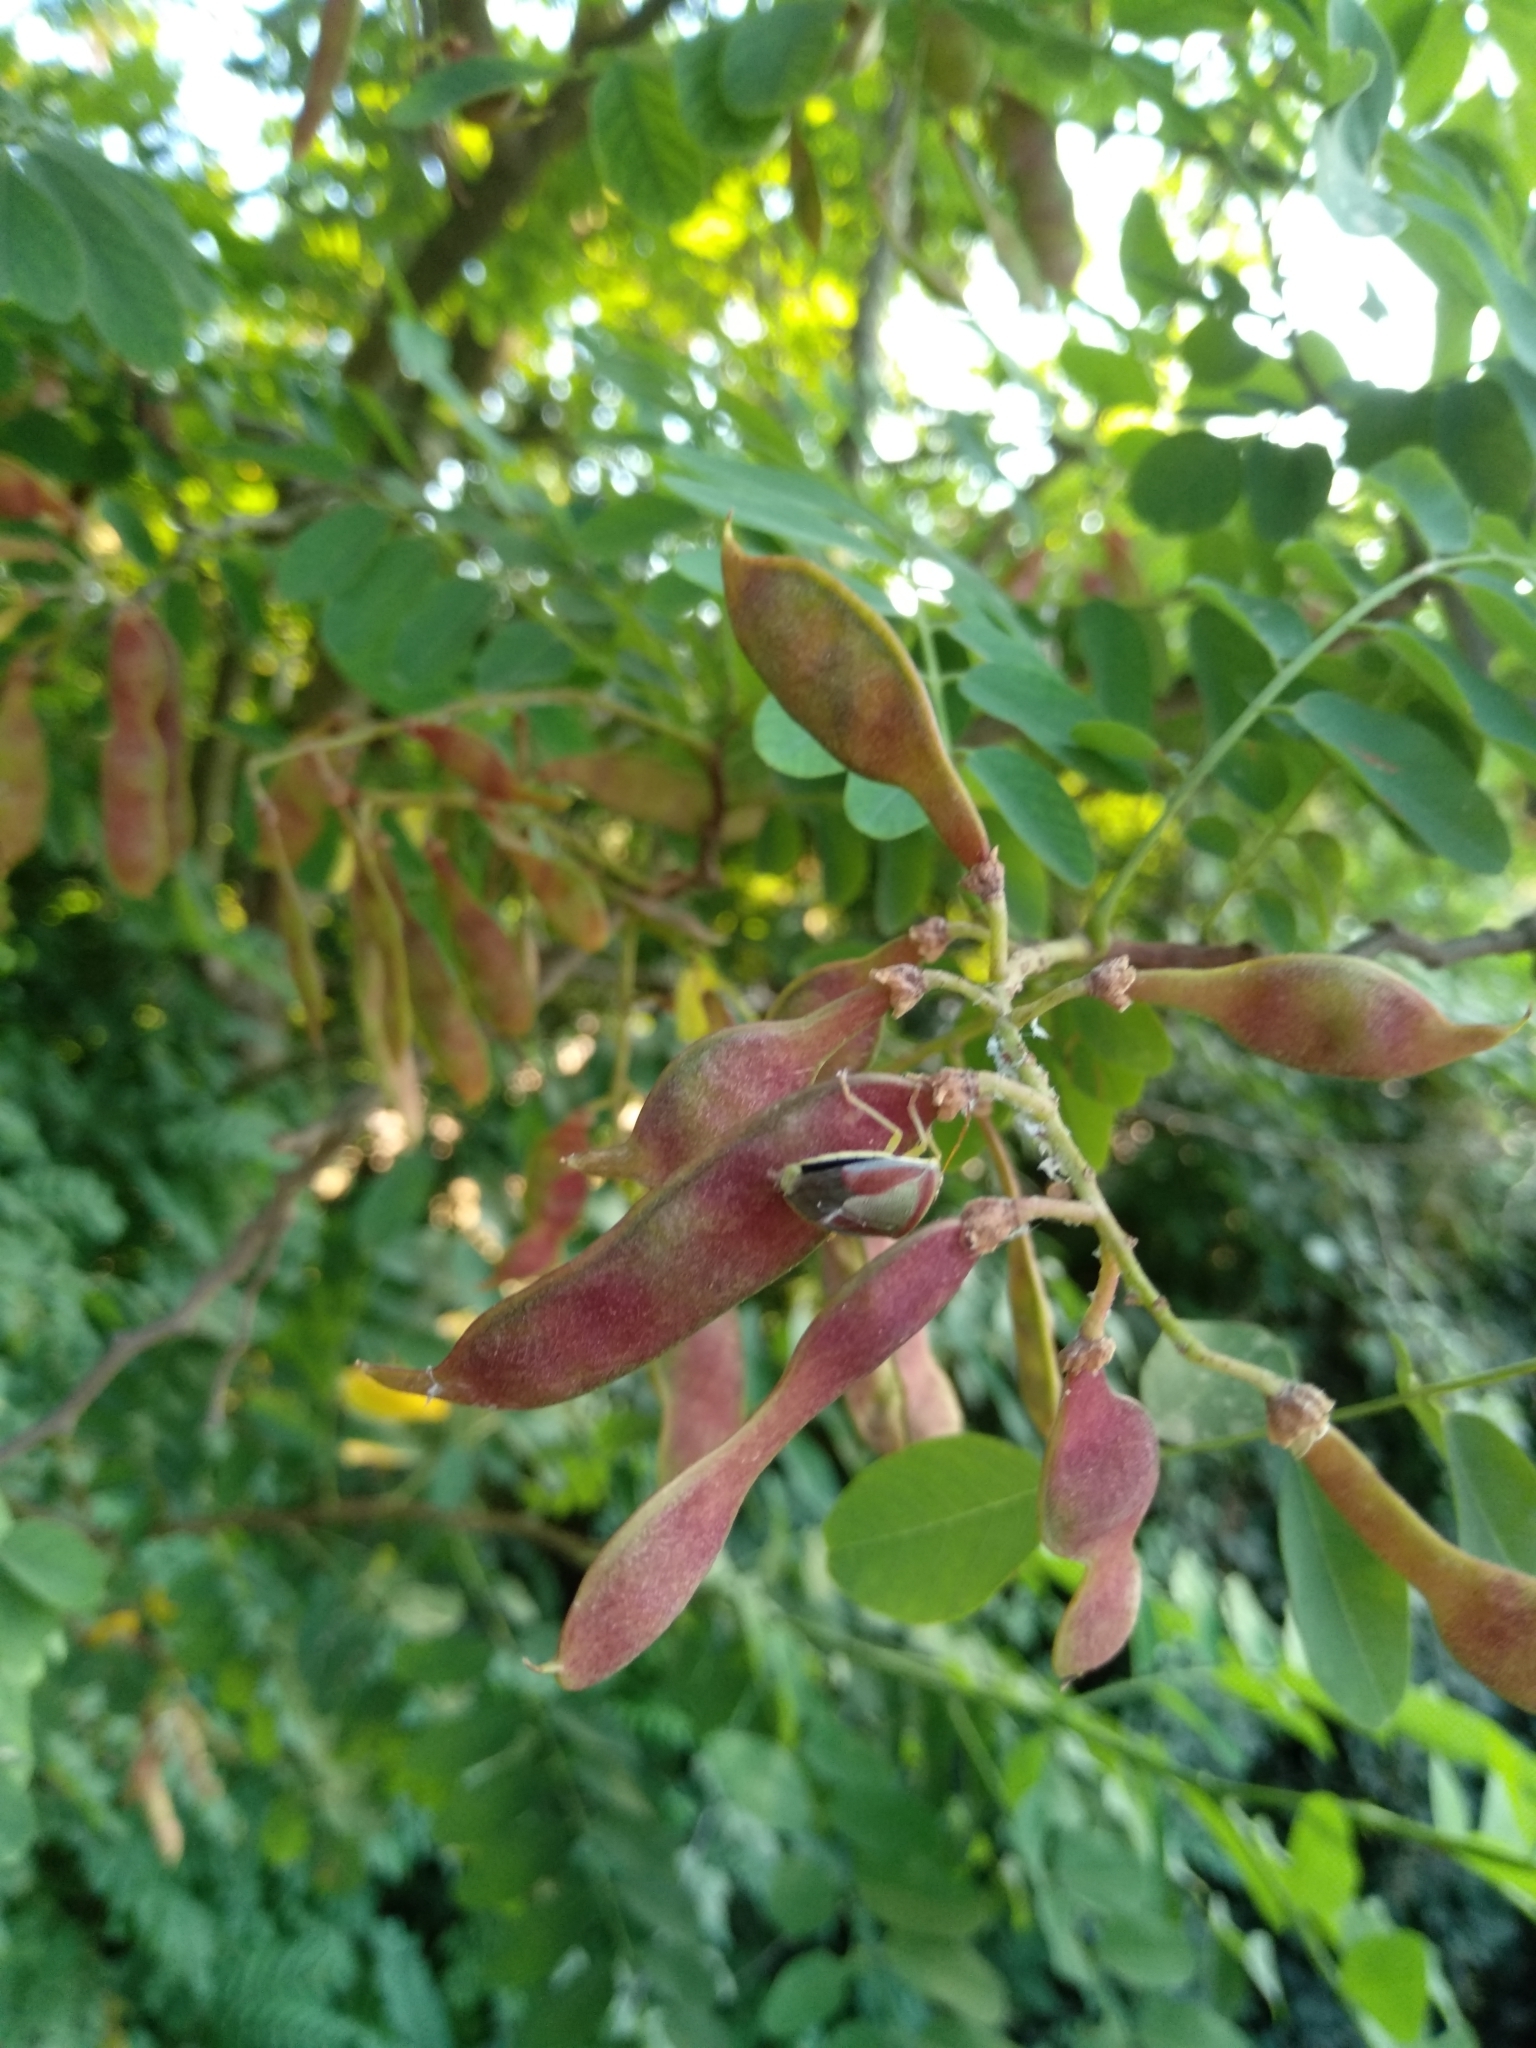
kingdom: Animalia
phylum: Arthropoda
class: Insecta
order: Hemiptera
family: Pentatomidae
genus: Piezodorus
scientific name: Piezodorus lituratus
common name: Stink bug
